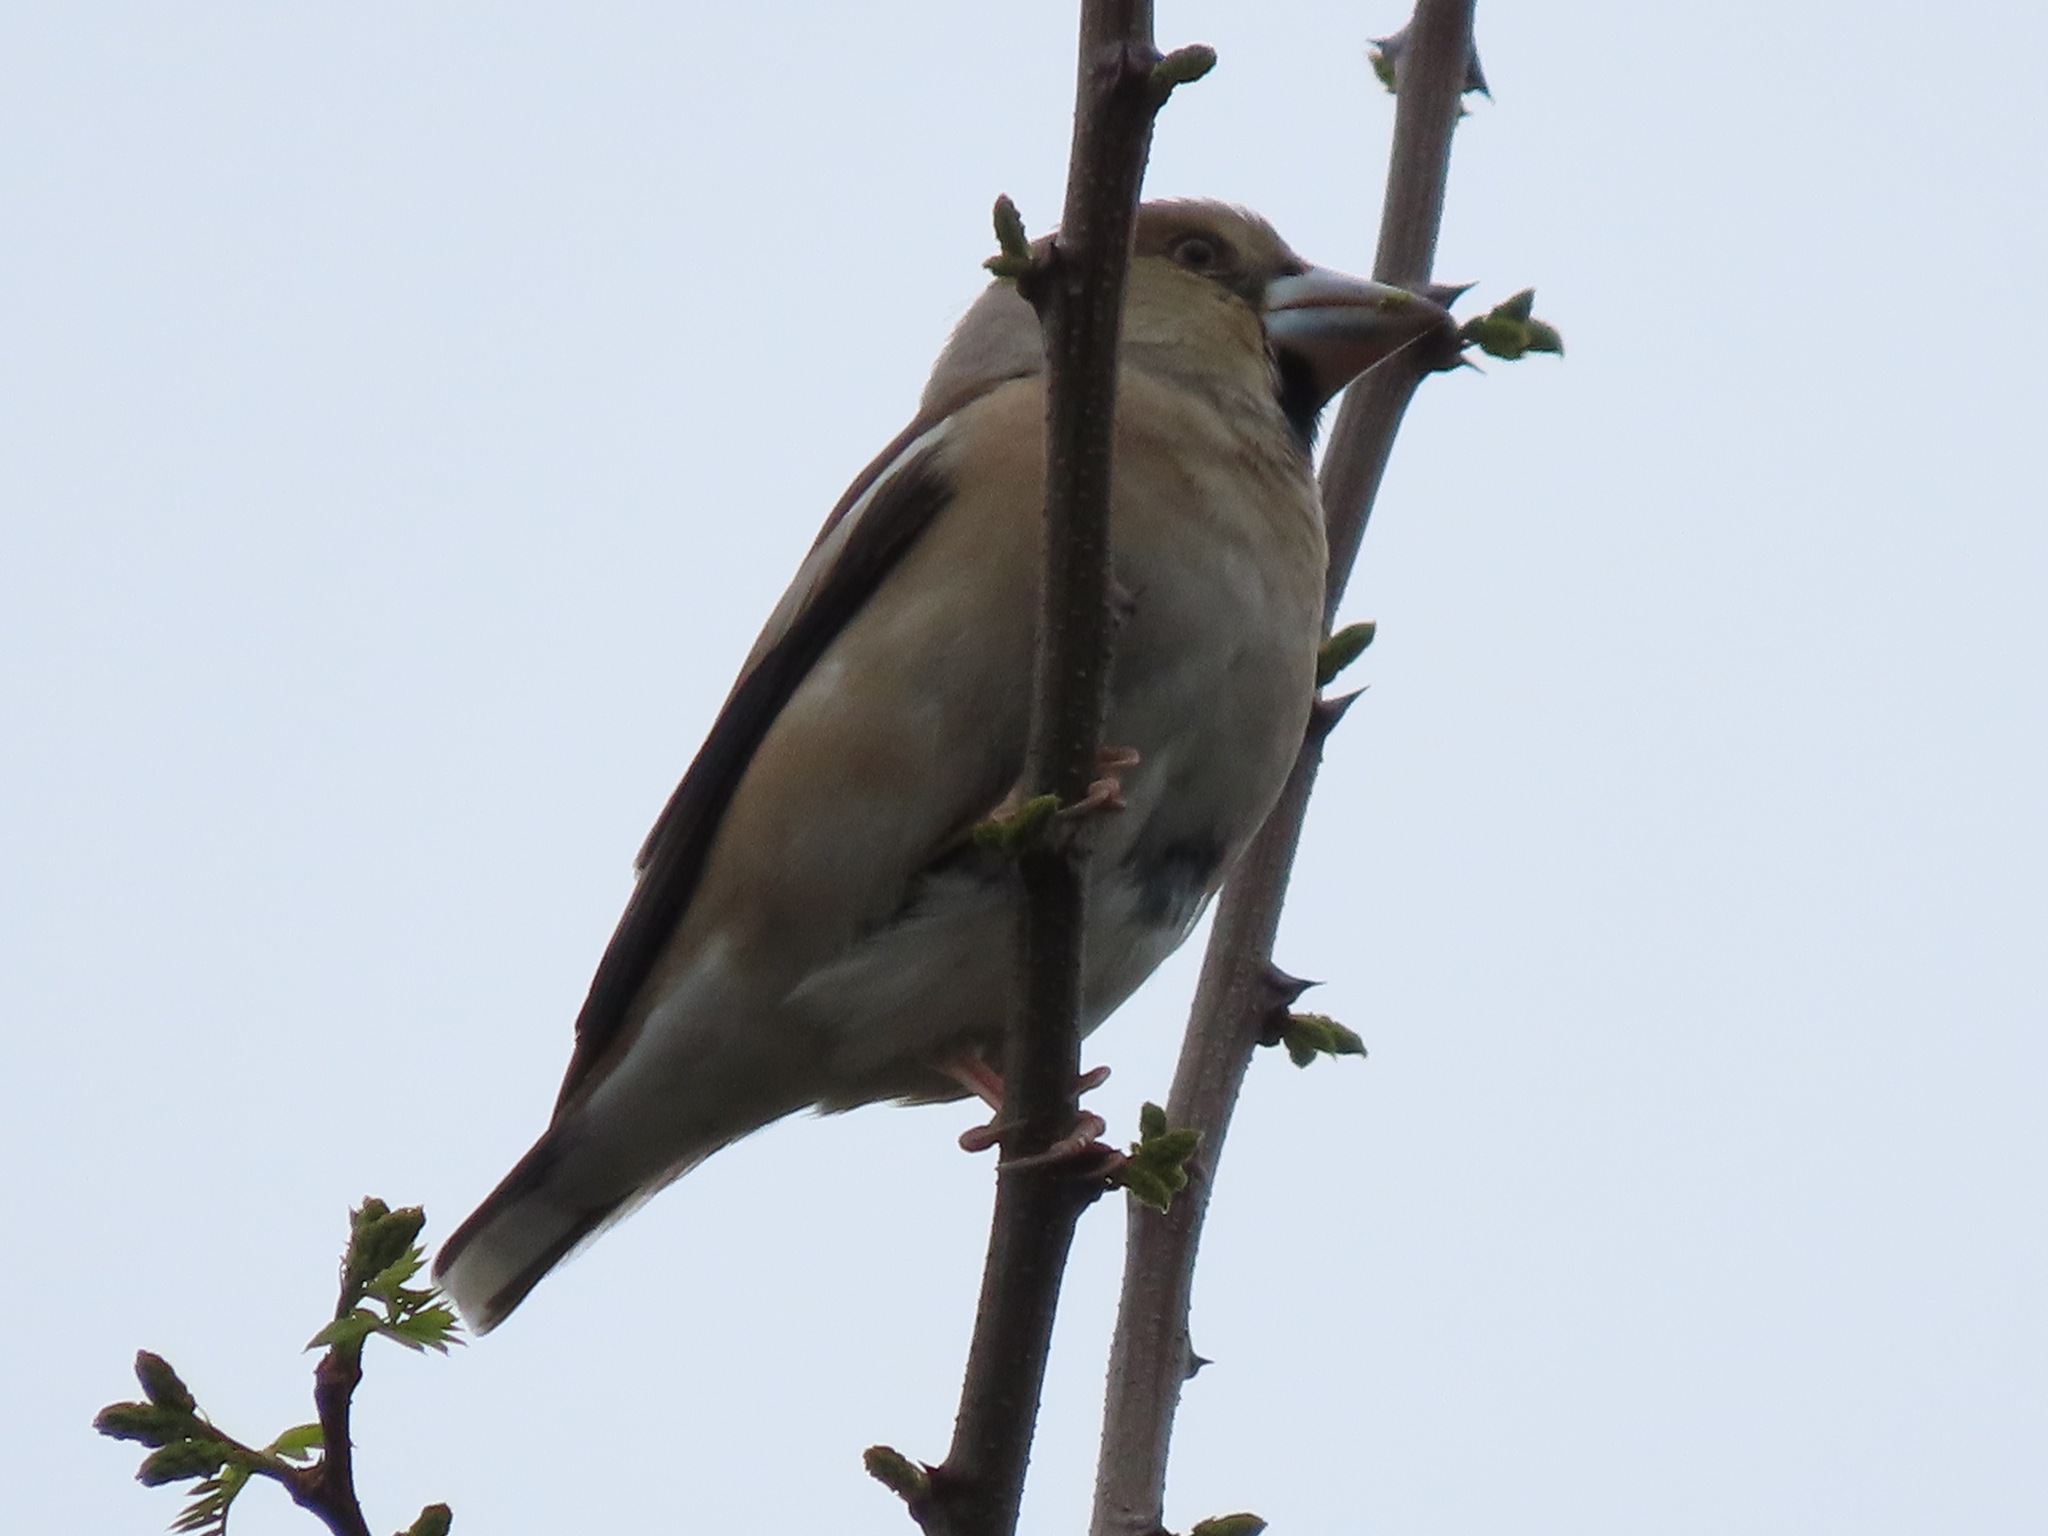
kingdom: Animalia
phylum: Chordata
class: Aves
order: Passeriformes
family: Fringillidae
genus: Coccothraustes
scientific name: Coccothraustes coccothraustes
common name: Hawfinch
